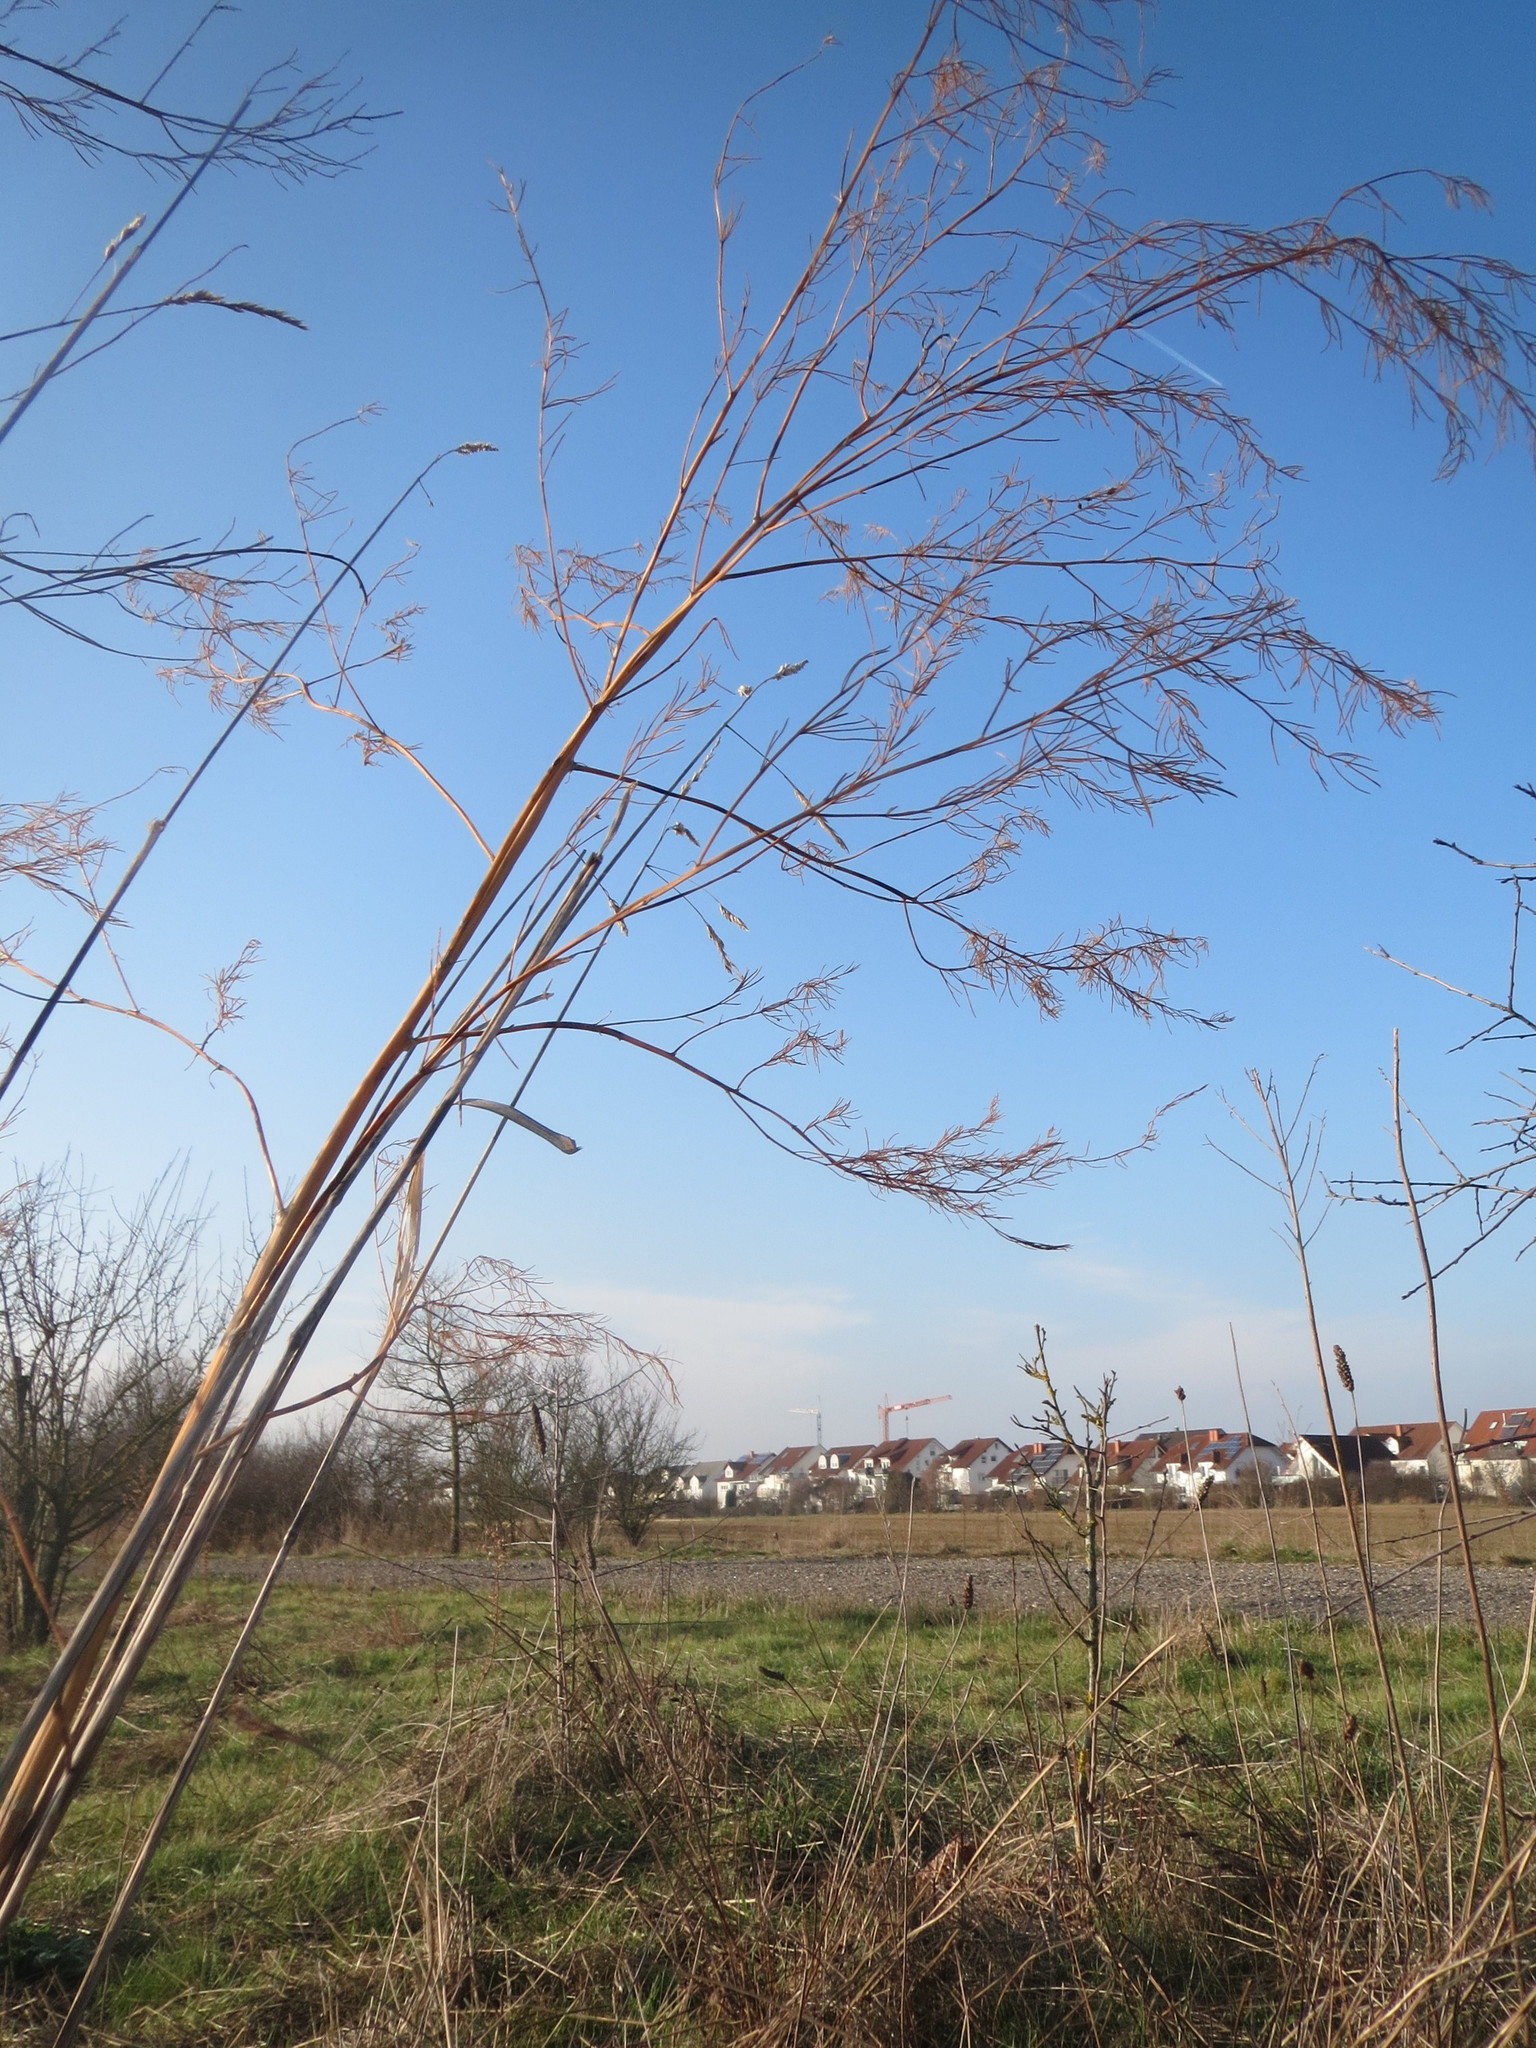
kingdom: Plantae
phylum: Tracheophyta
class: Liliopsida
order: Asparagales
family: Asparagaceae
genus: Asparagus
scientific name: Asparagus officinalis
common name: Garden asparagus
